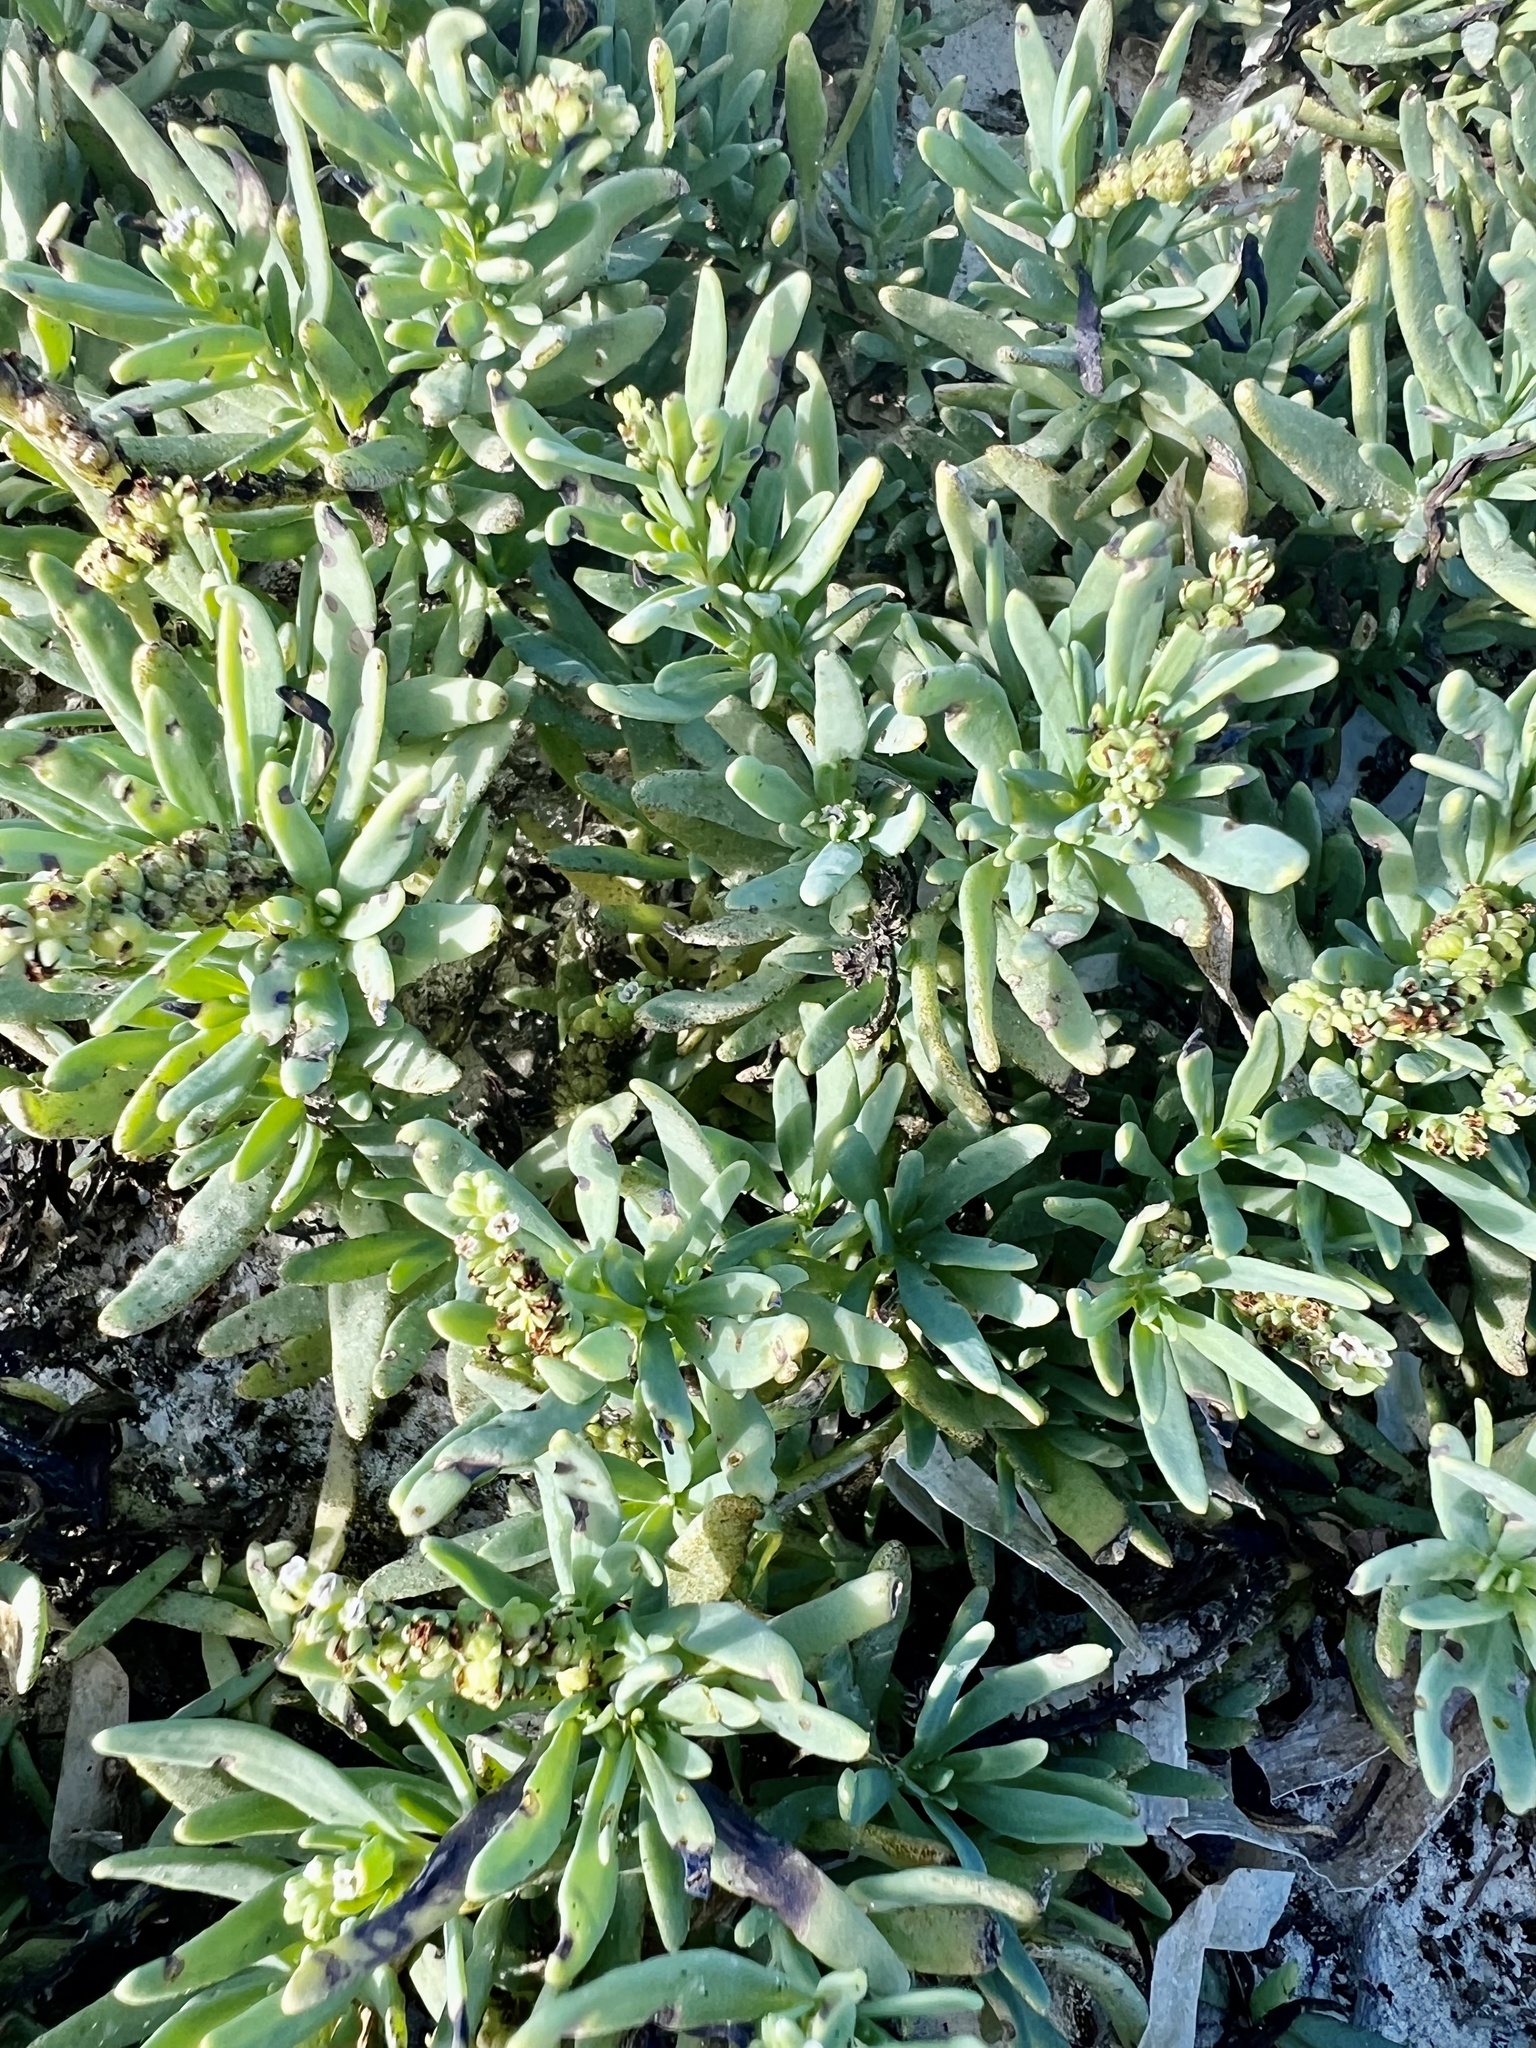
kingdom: Plantae
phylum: Tracheophyta
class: Magnoliopsida
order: Boraginales
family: Heliotropiaceae
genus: Heliotropium
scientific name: Heliotropium curassavicum
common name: Seaside heliotrope
